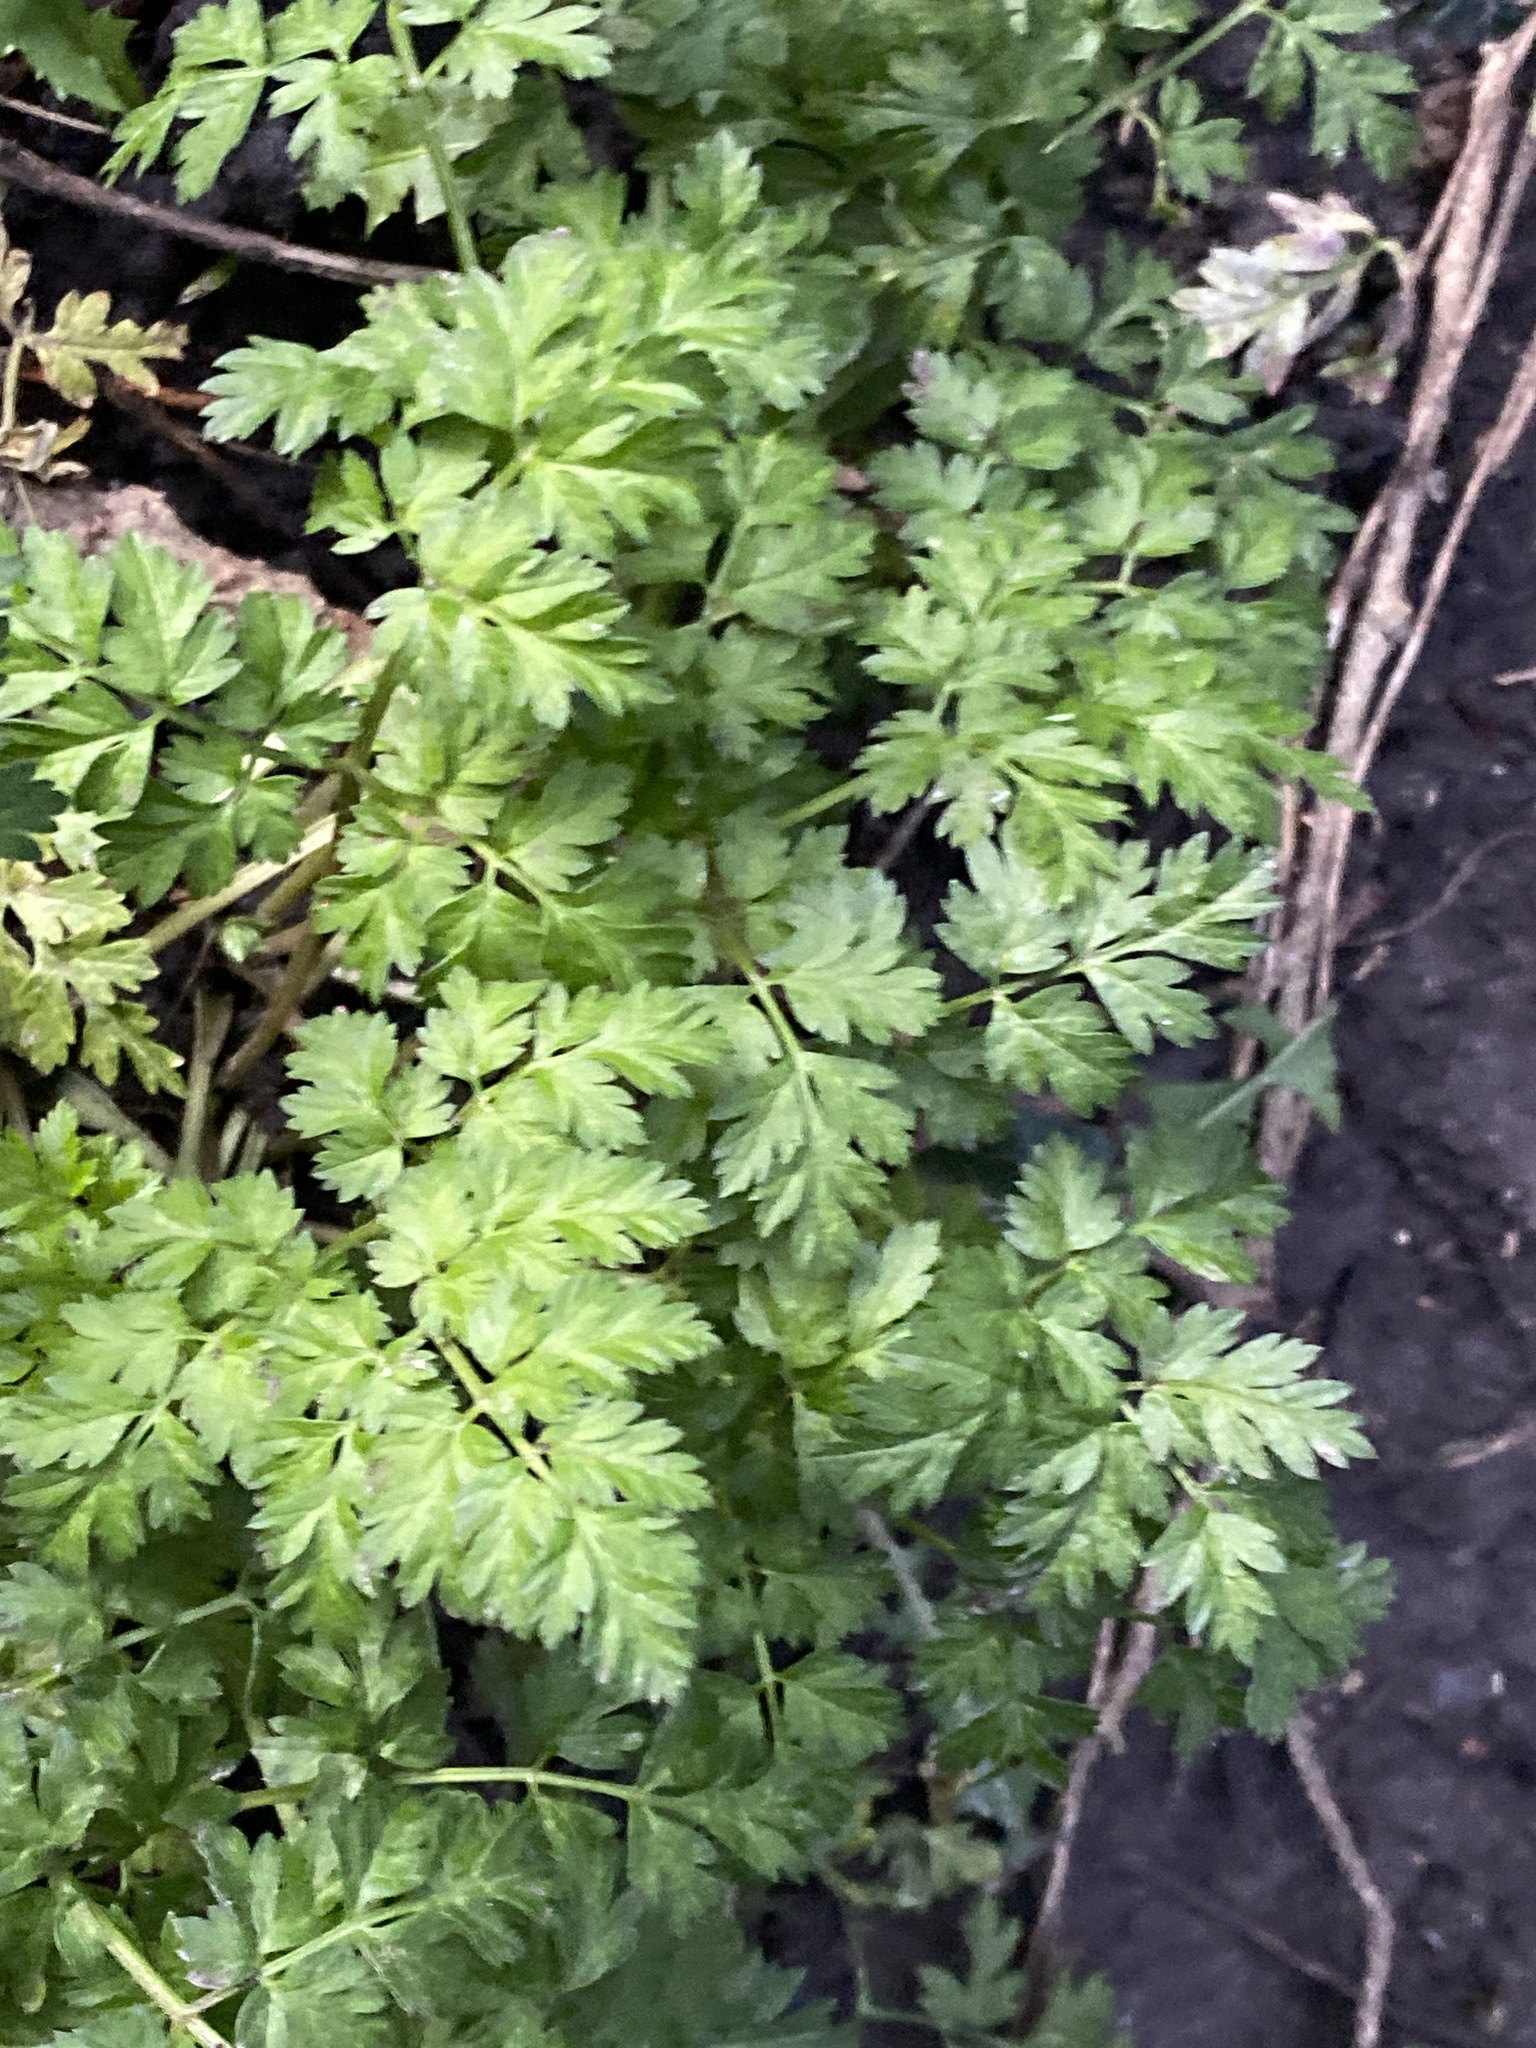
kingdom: Plantae
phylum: Tracheophyta
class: Magnoliopsida
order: Apiales
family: Apiaceae
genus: Anthriscus
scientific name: Anthriscus sylvestris
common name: Cow parsley
